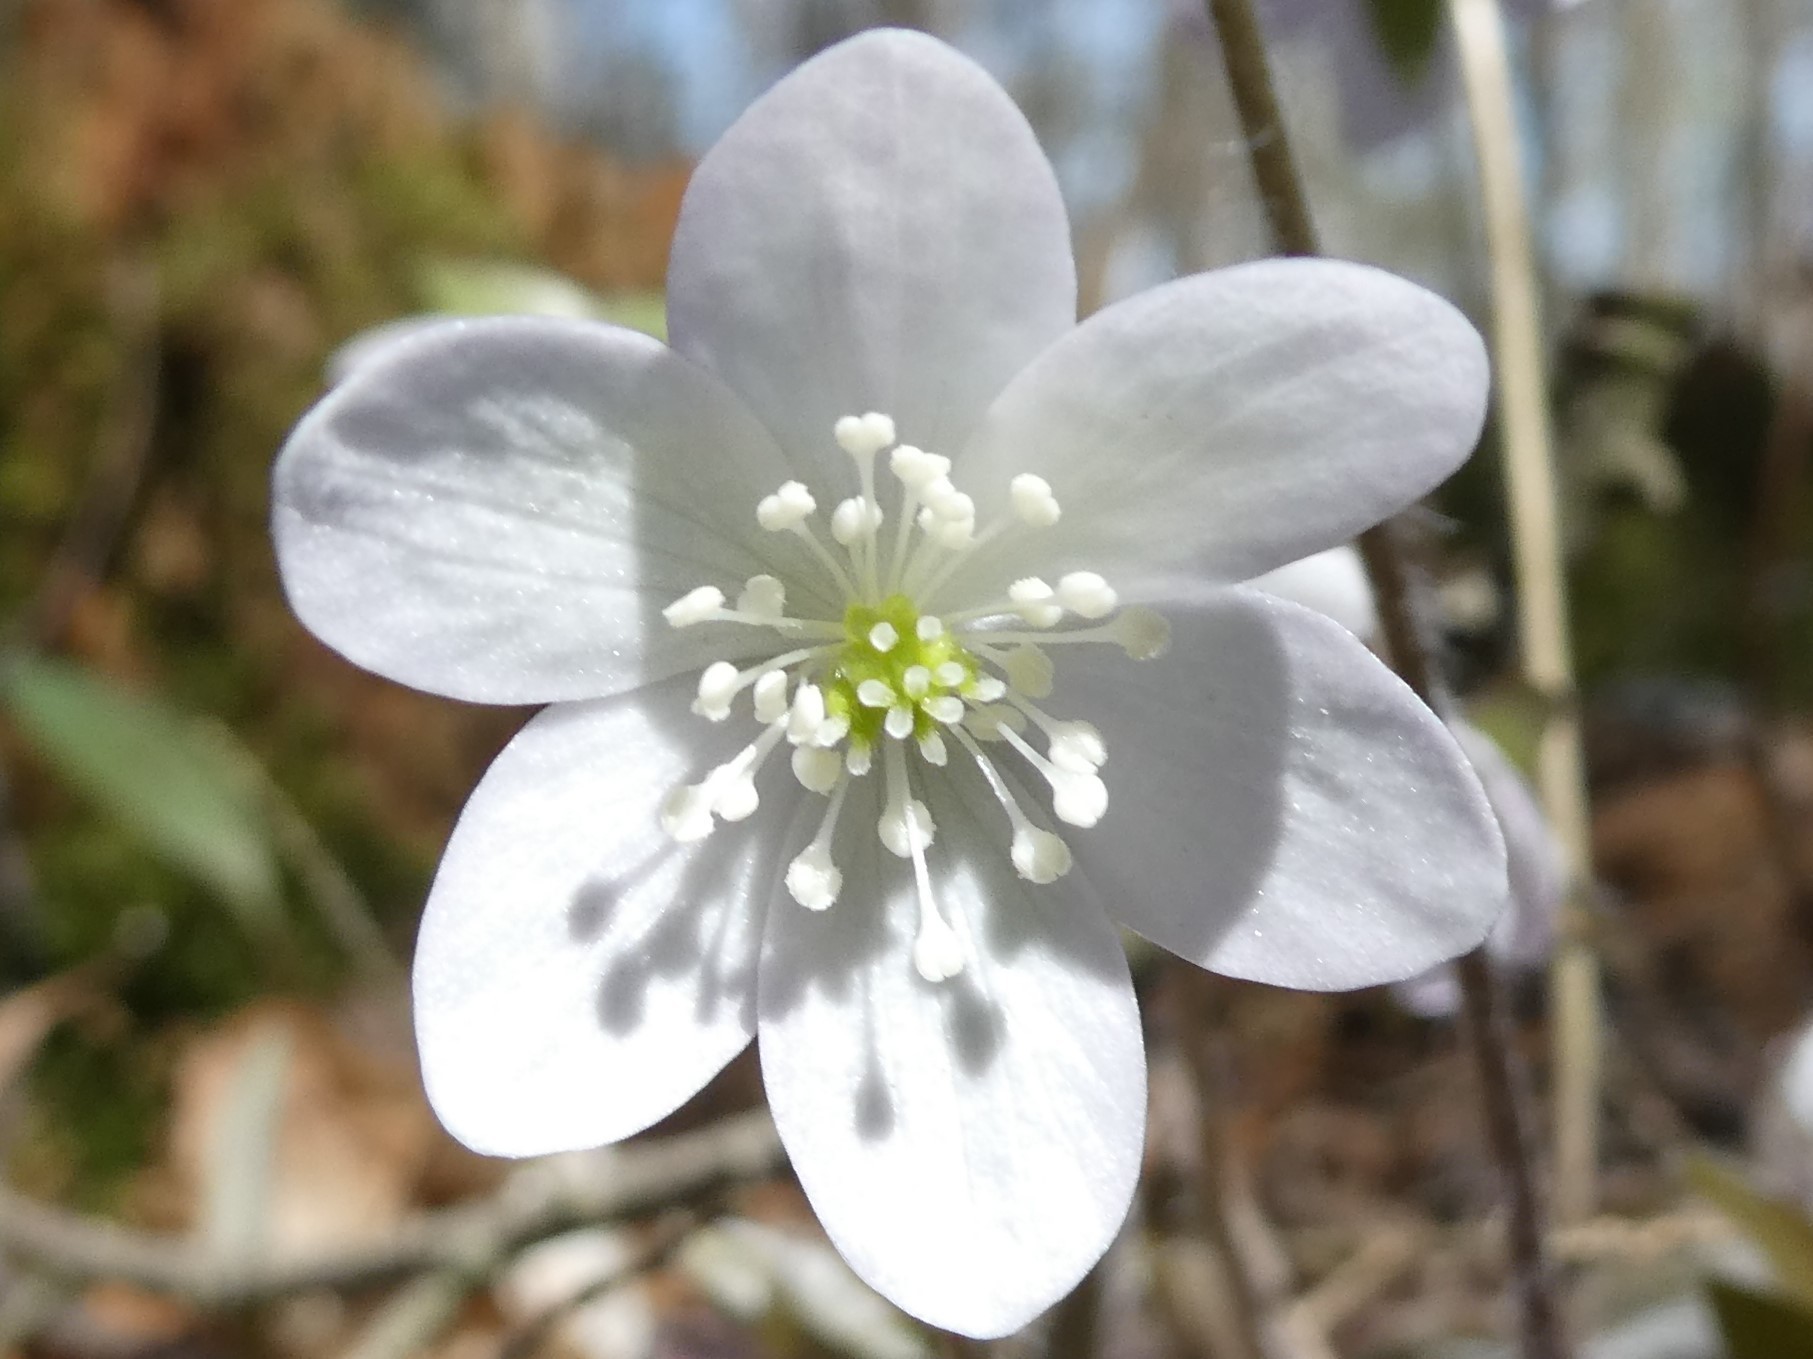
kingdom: Plantae
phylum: Tracheophyta
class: Magnoliopsida
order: Ranunculales
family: Ranunculaceae
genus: Hepatica
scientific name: Hepatica acutiloba
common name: Sharp-lobed hepatica
